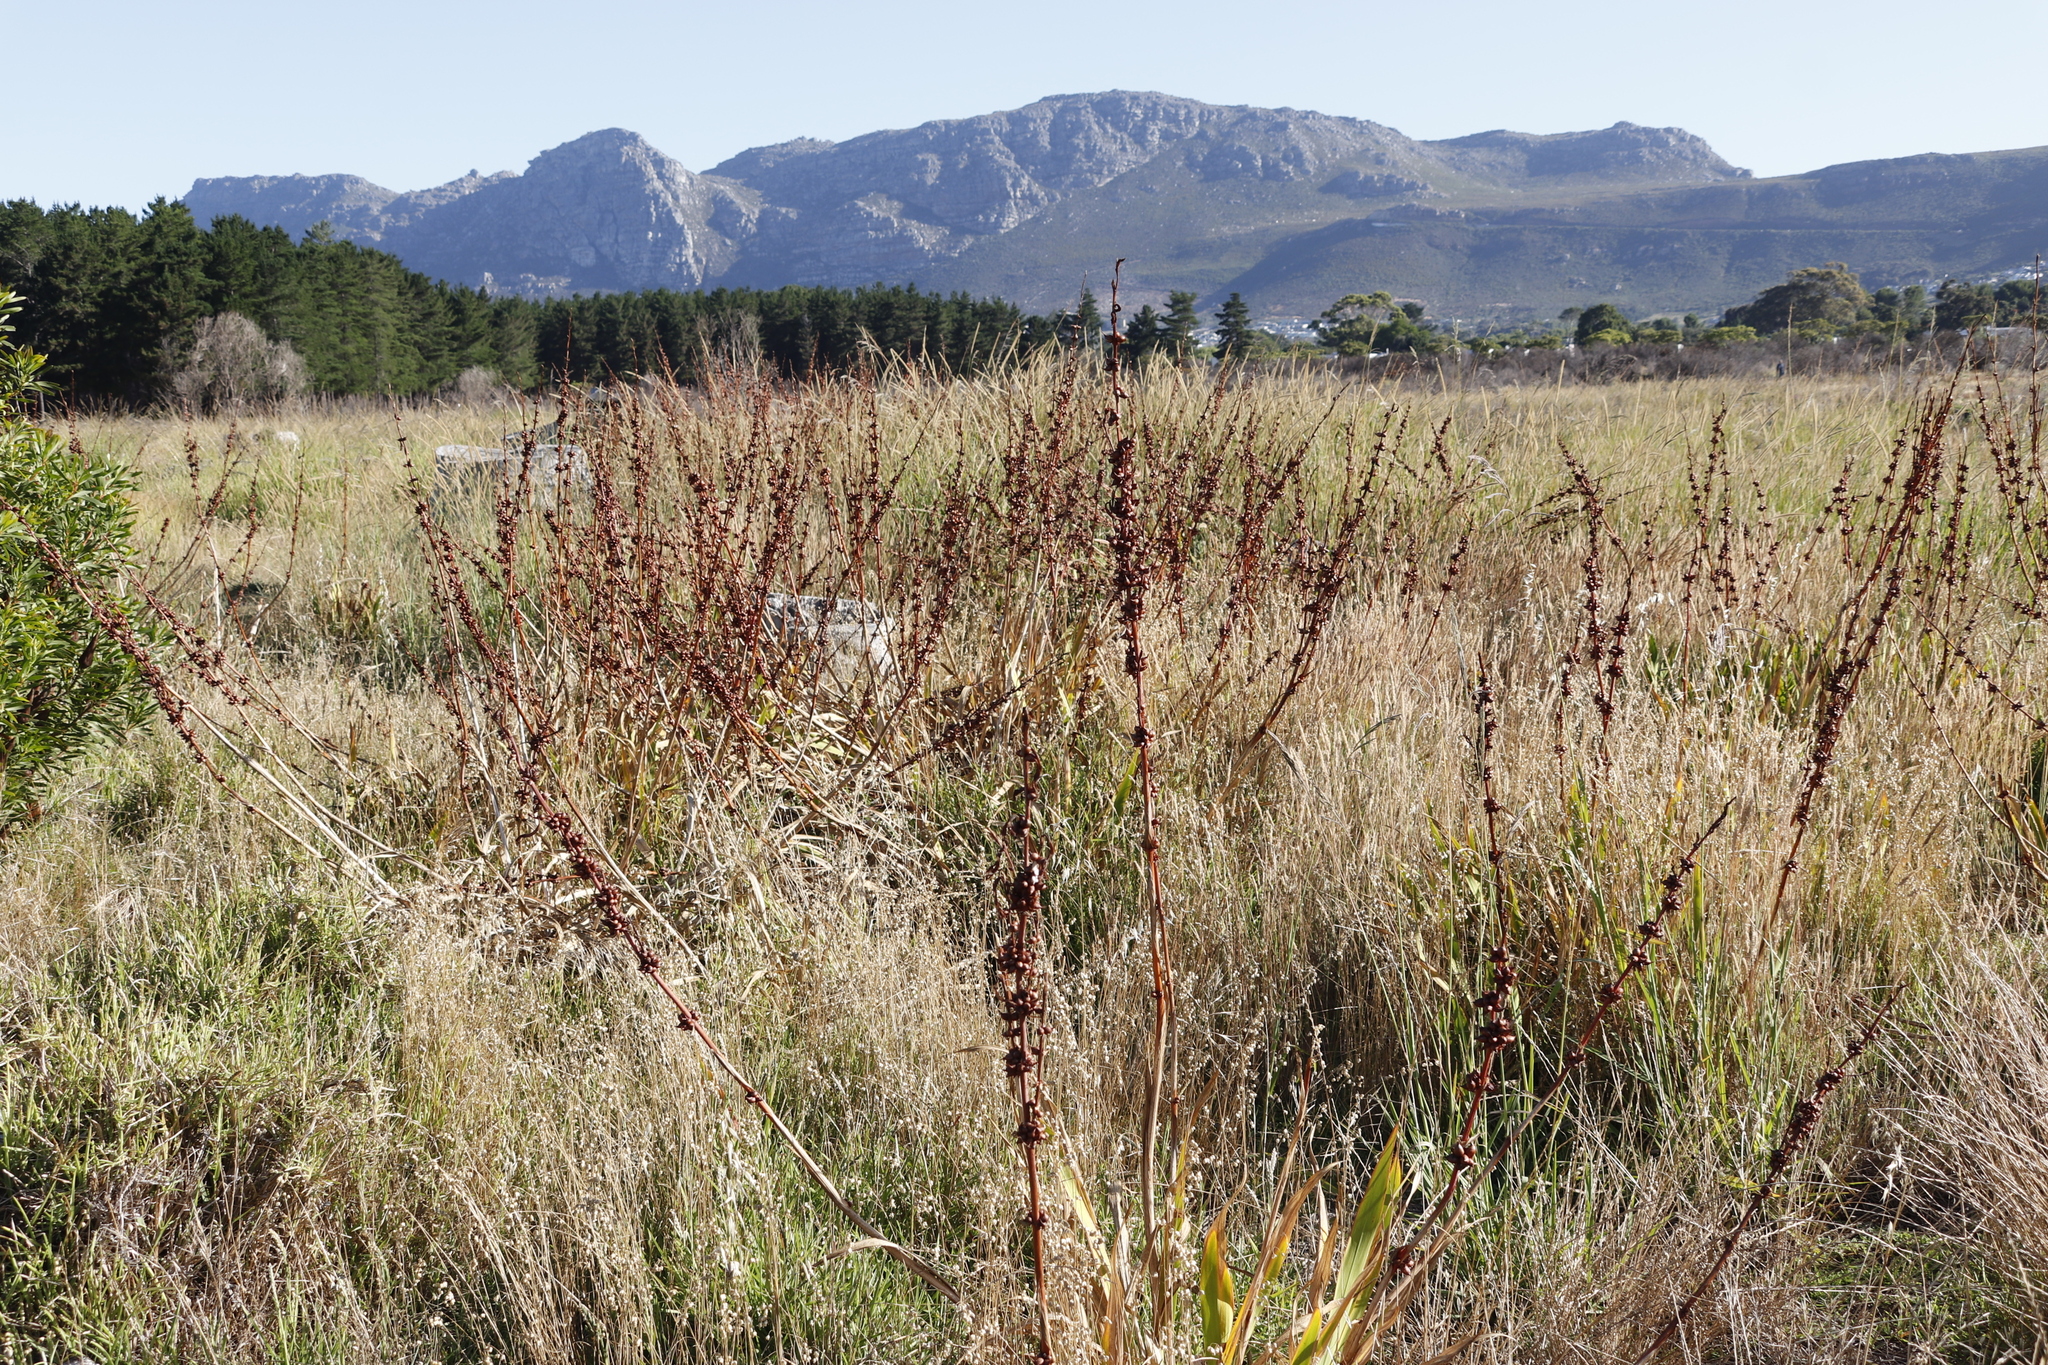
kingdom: Plantae
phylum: Tracheophyta
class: Liliopsida
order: Asparagales
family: Iridaceae
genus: Watsonia
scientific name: Watsonia meriana
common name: Bulbil bugle-lily
